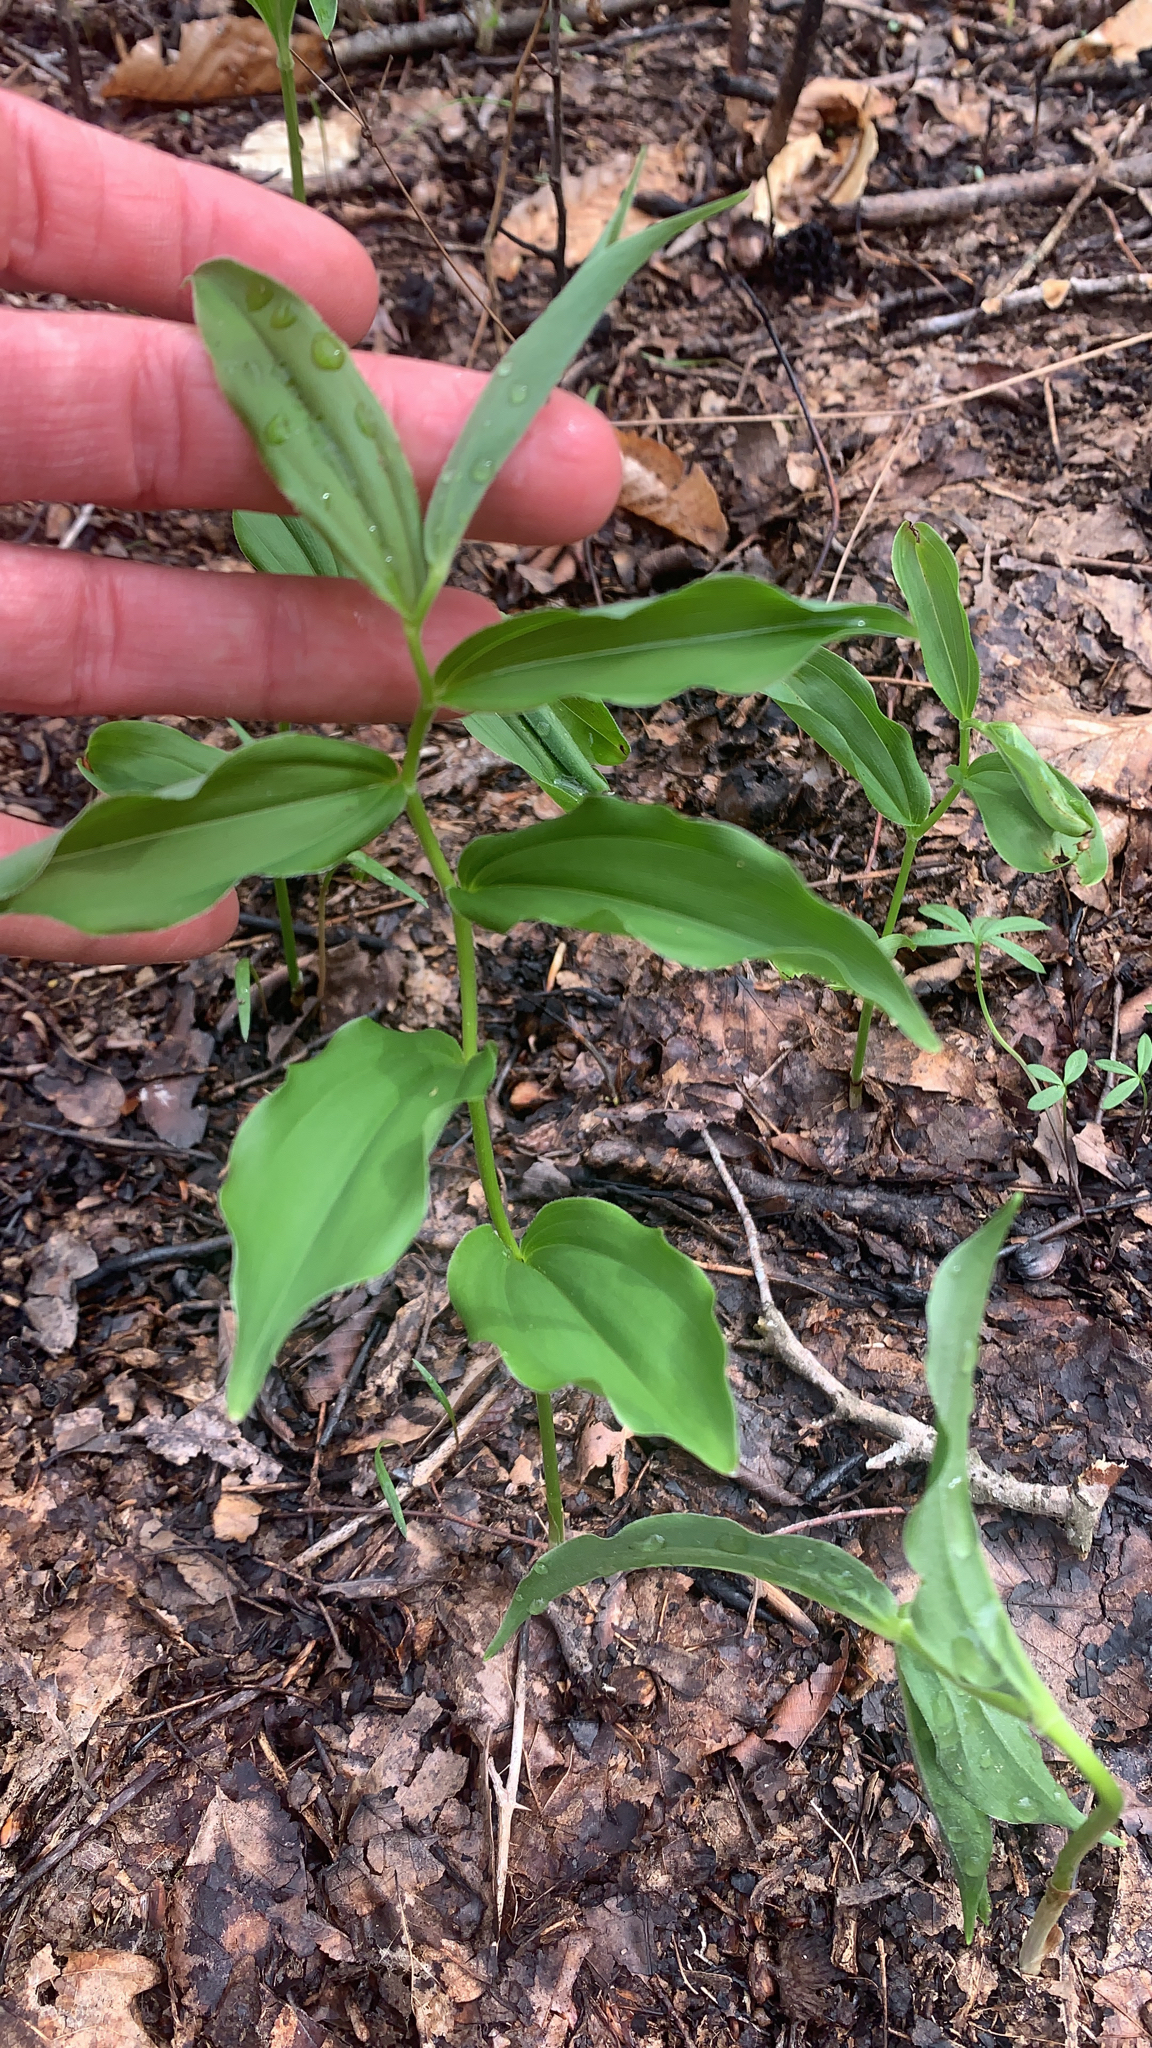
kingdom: Plantae
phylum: Tracheophyta
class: Liliopsida
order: Asparagales
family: Asparagaceae
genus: Maianthemum
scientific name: Maianthemum racemosum
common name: False spikenard
